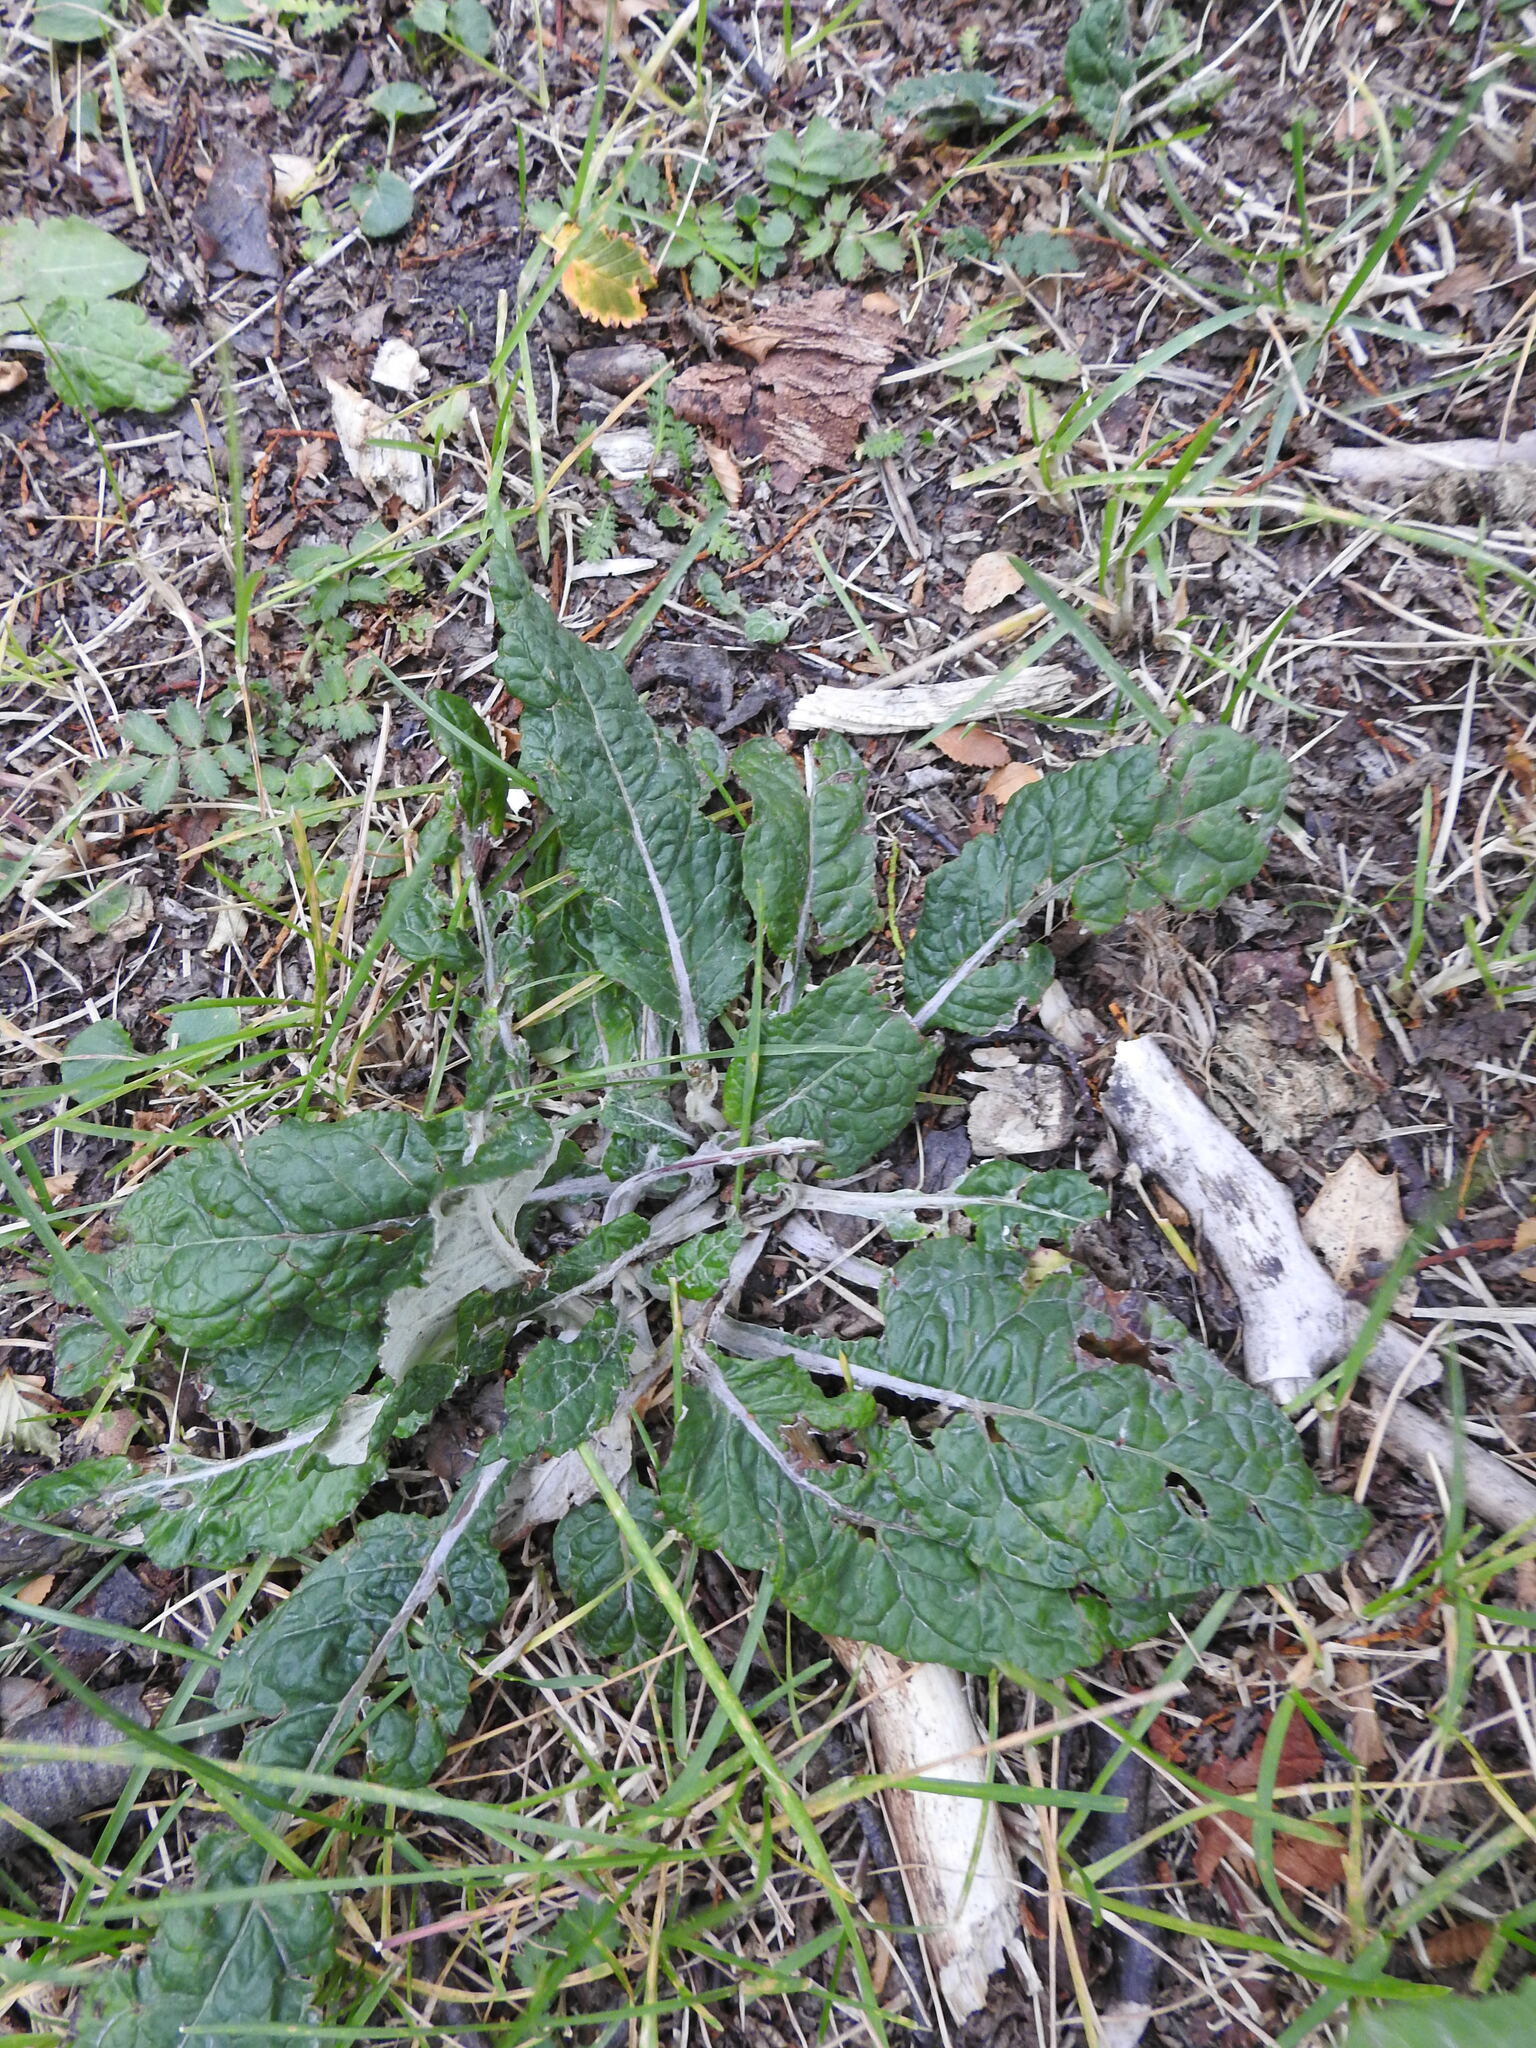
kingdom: Plantae
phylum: Tracheophyta
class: Magnoliopsida
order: Asterales
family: Asteraceae
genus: Adenocaulon
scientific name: Adenocaulon chilense
